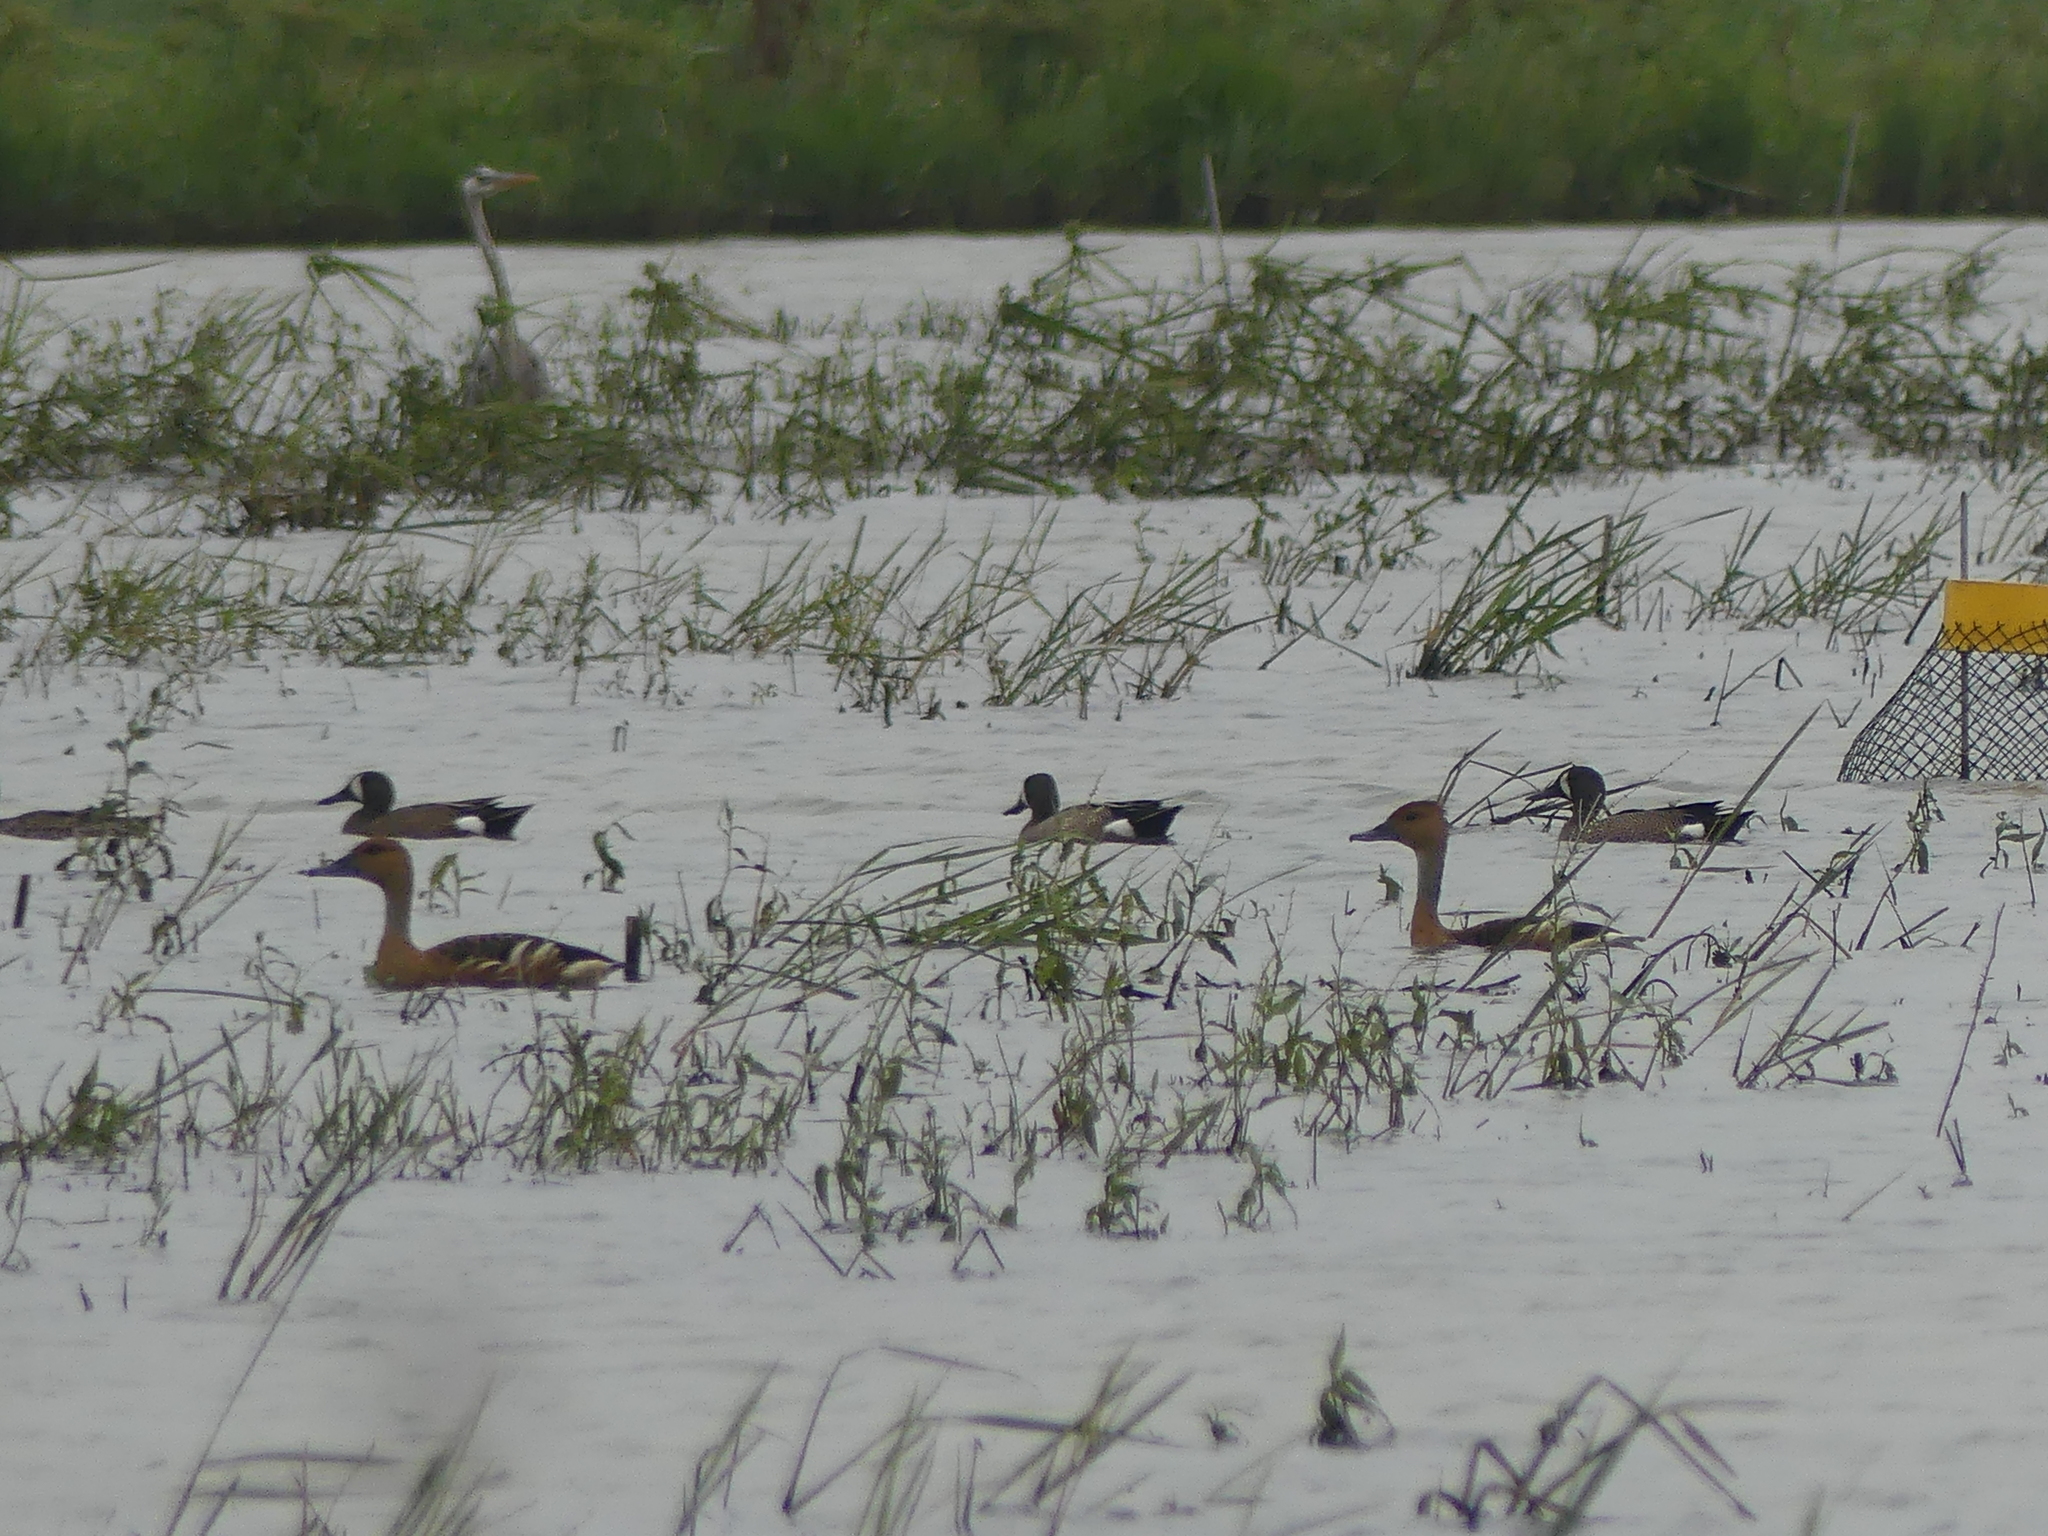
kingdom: Animalia
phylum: Chordata
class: Aves
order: Anseriformes
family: Anatidae
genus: Spatula
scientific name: Spatula discors
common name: Blue-winged teal
